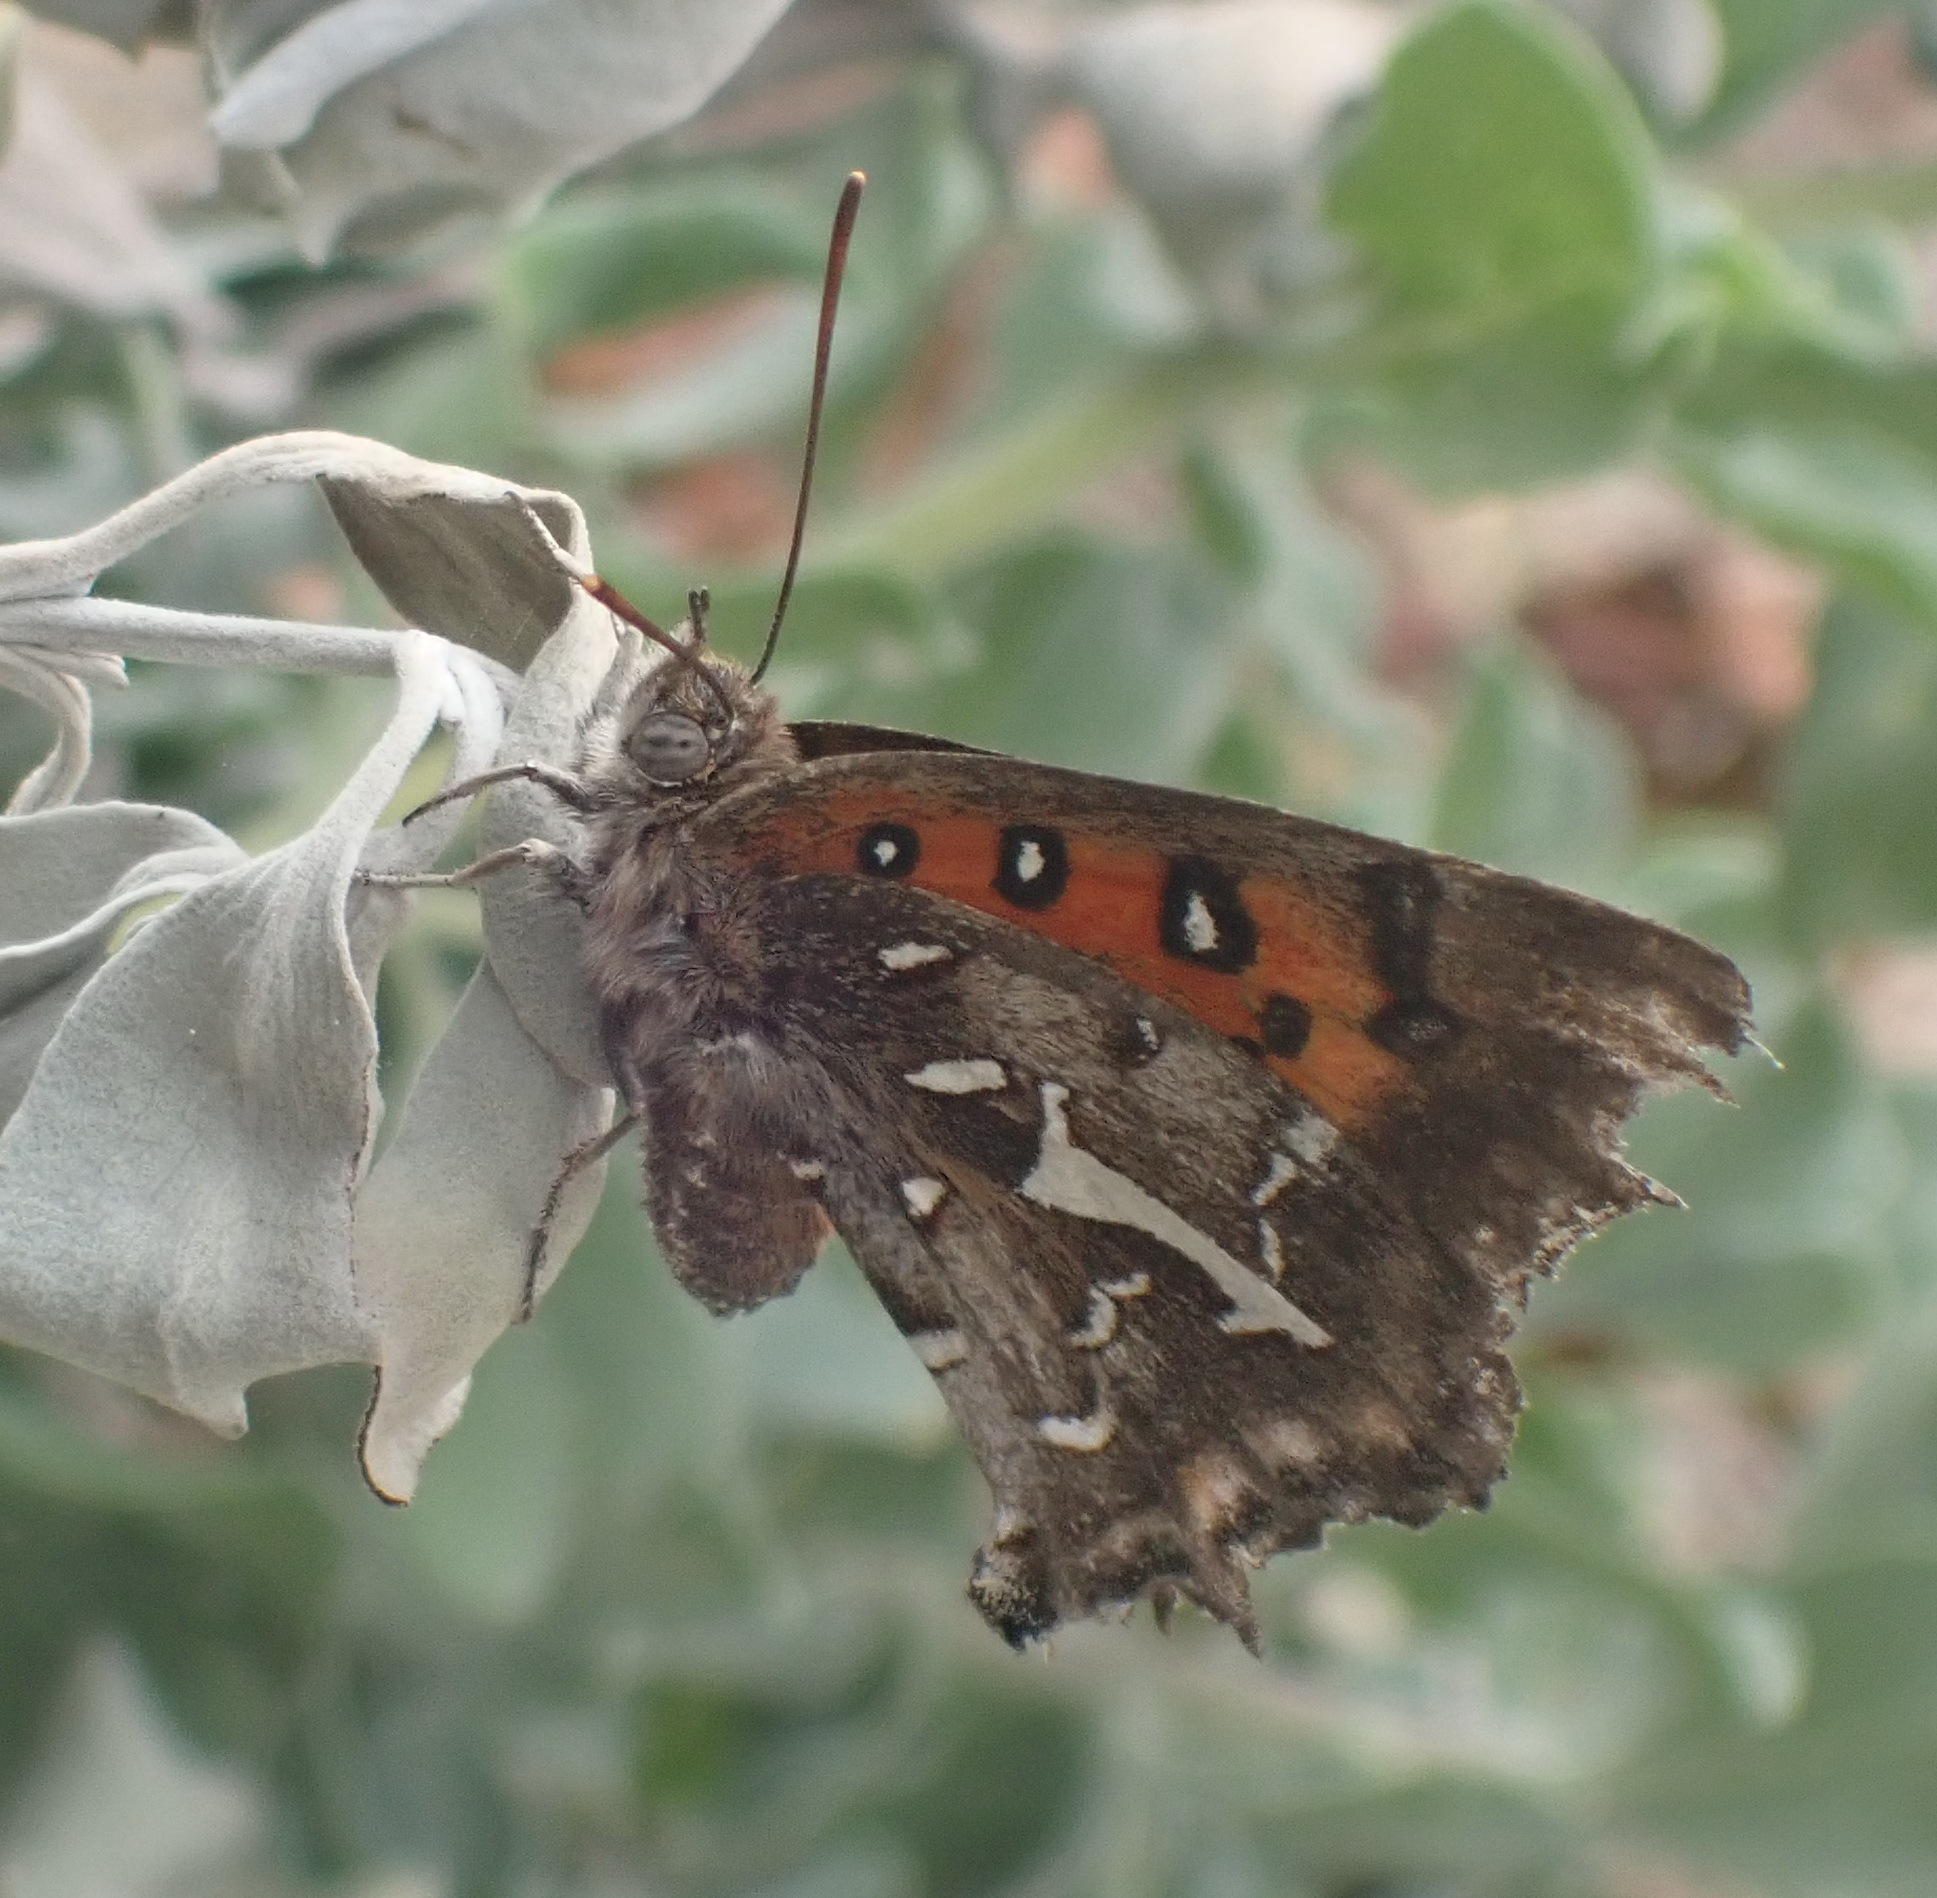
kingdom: Animalia
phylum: Arthropoda
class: Insecta
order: Lepidoptera
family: Lycaenidae
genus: Phasis
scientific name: Phasis thero
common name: Silver arrowhead
